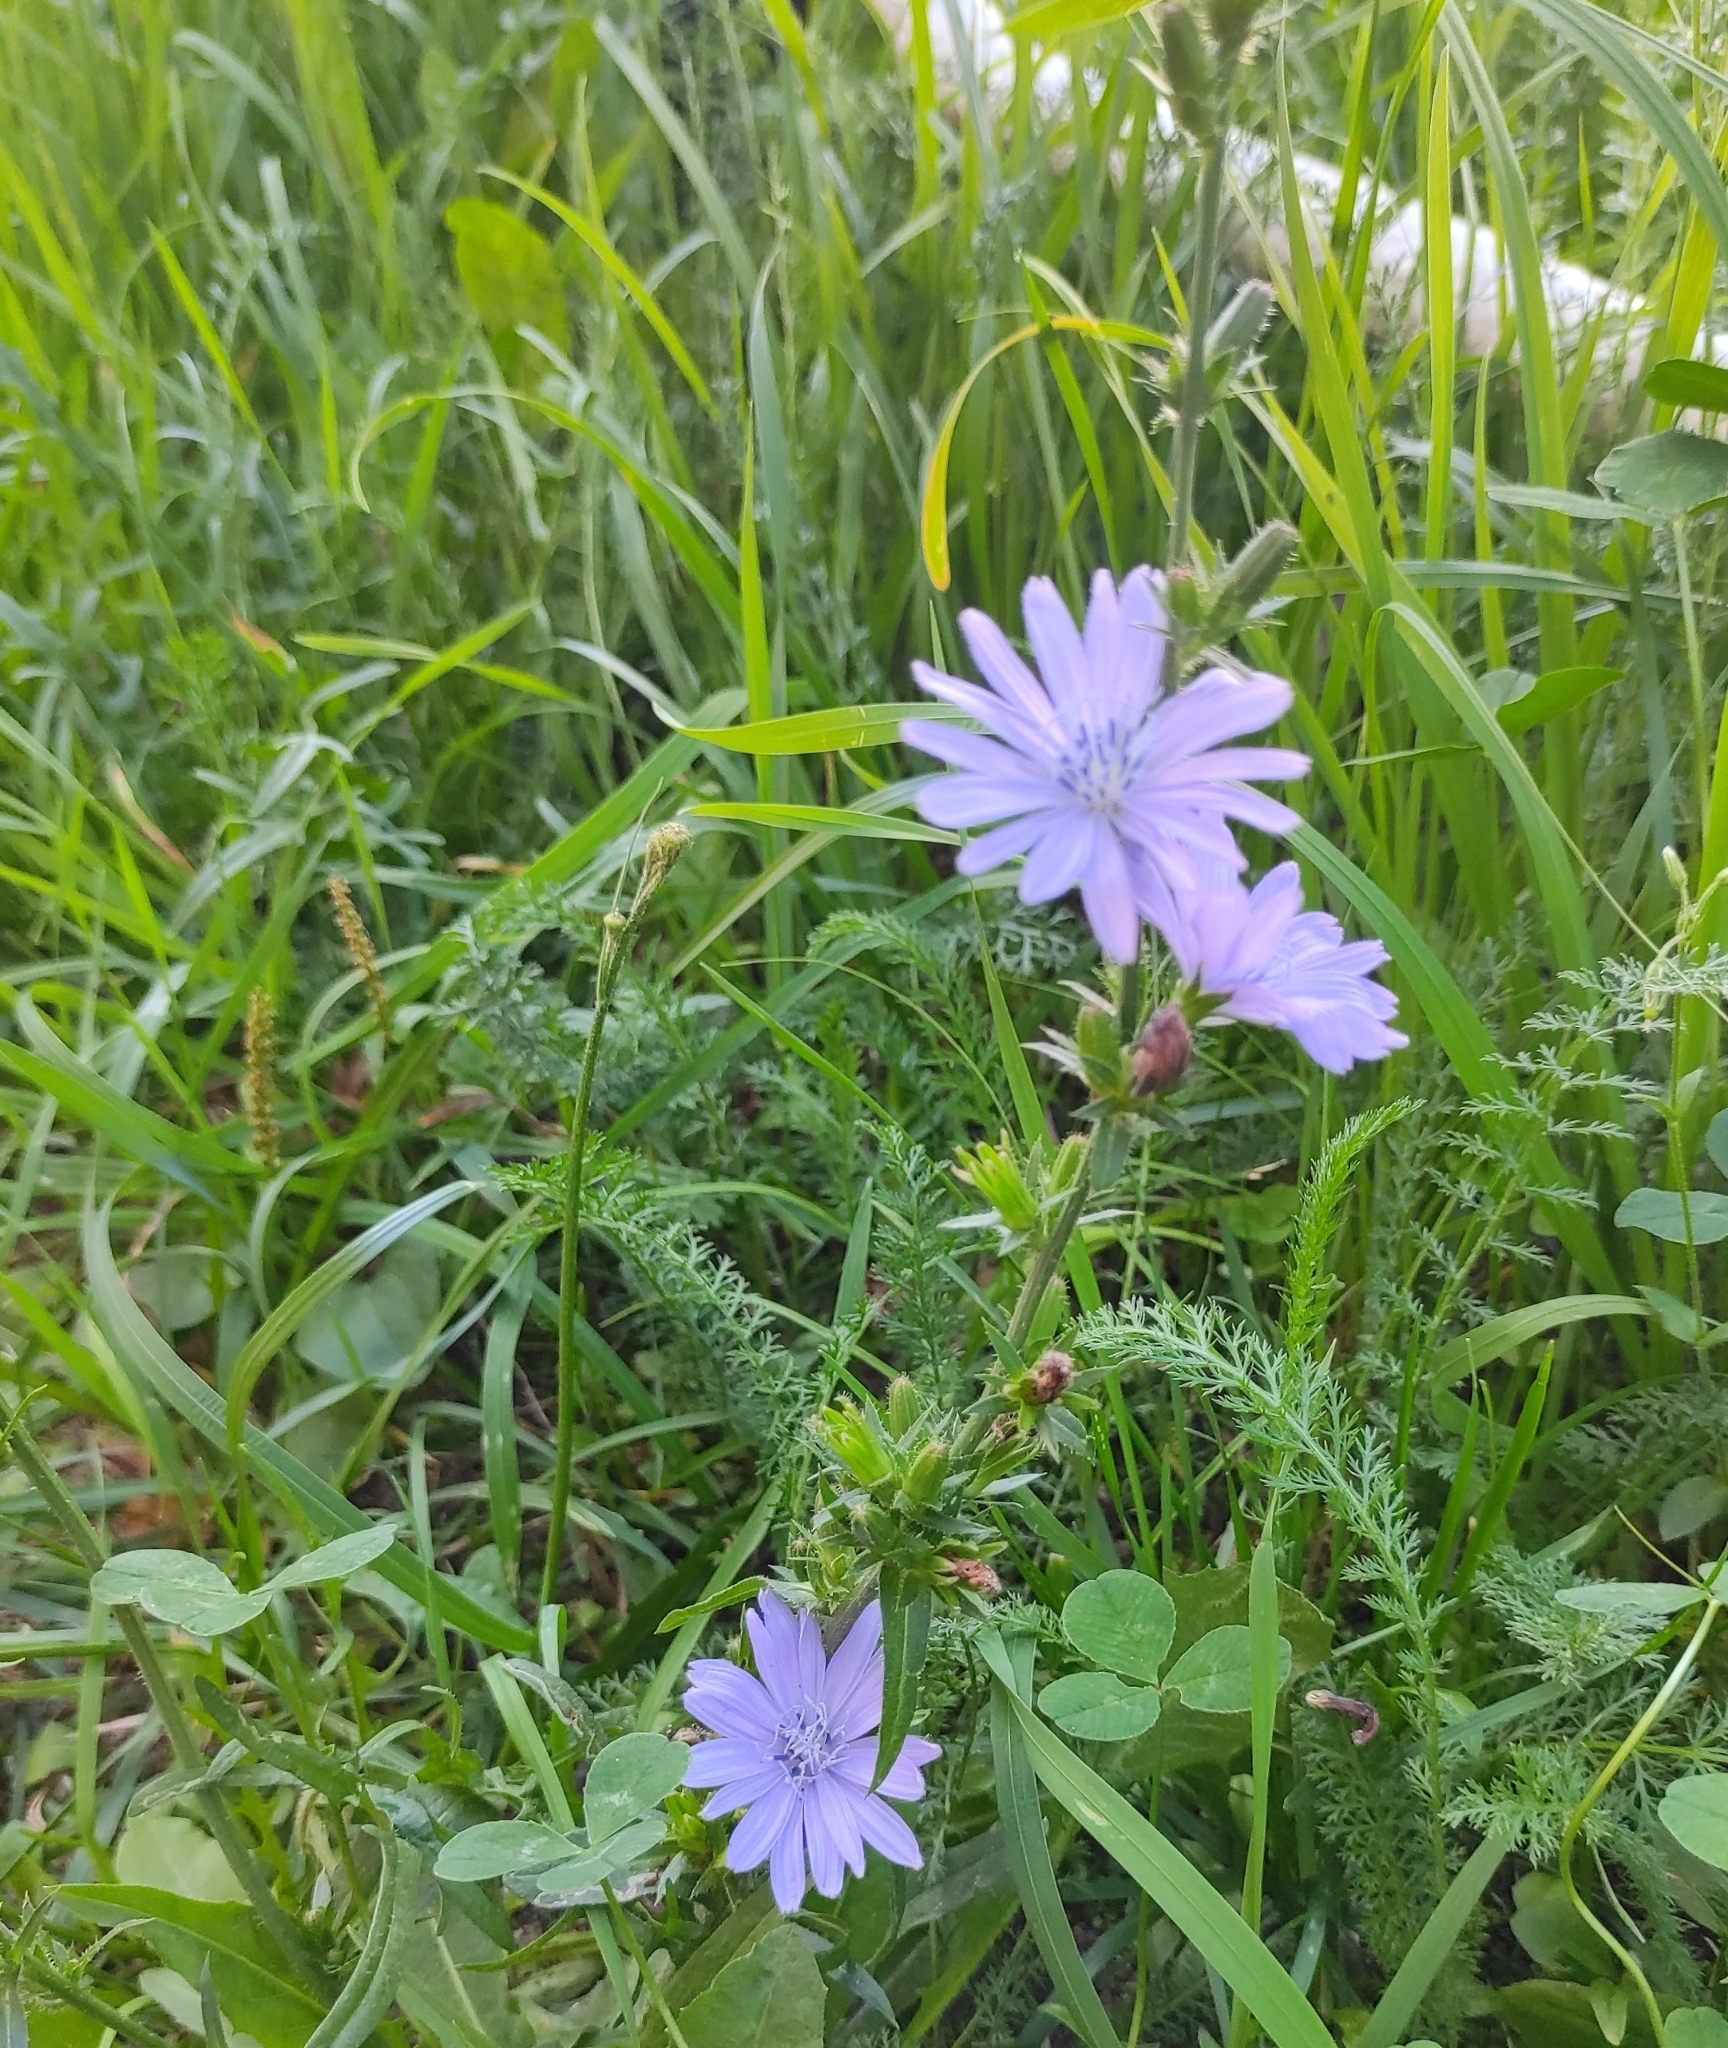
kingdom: Plantae
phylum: Tracheophyta
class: Magnoliopsida
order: Asterales
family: Asteraceae
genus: Cichorium
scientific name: Cichorium intybus
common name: Chicory
